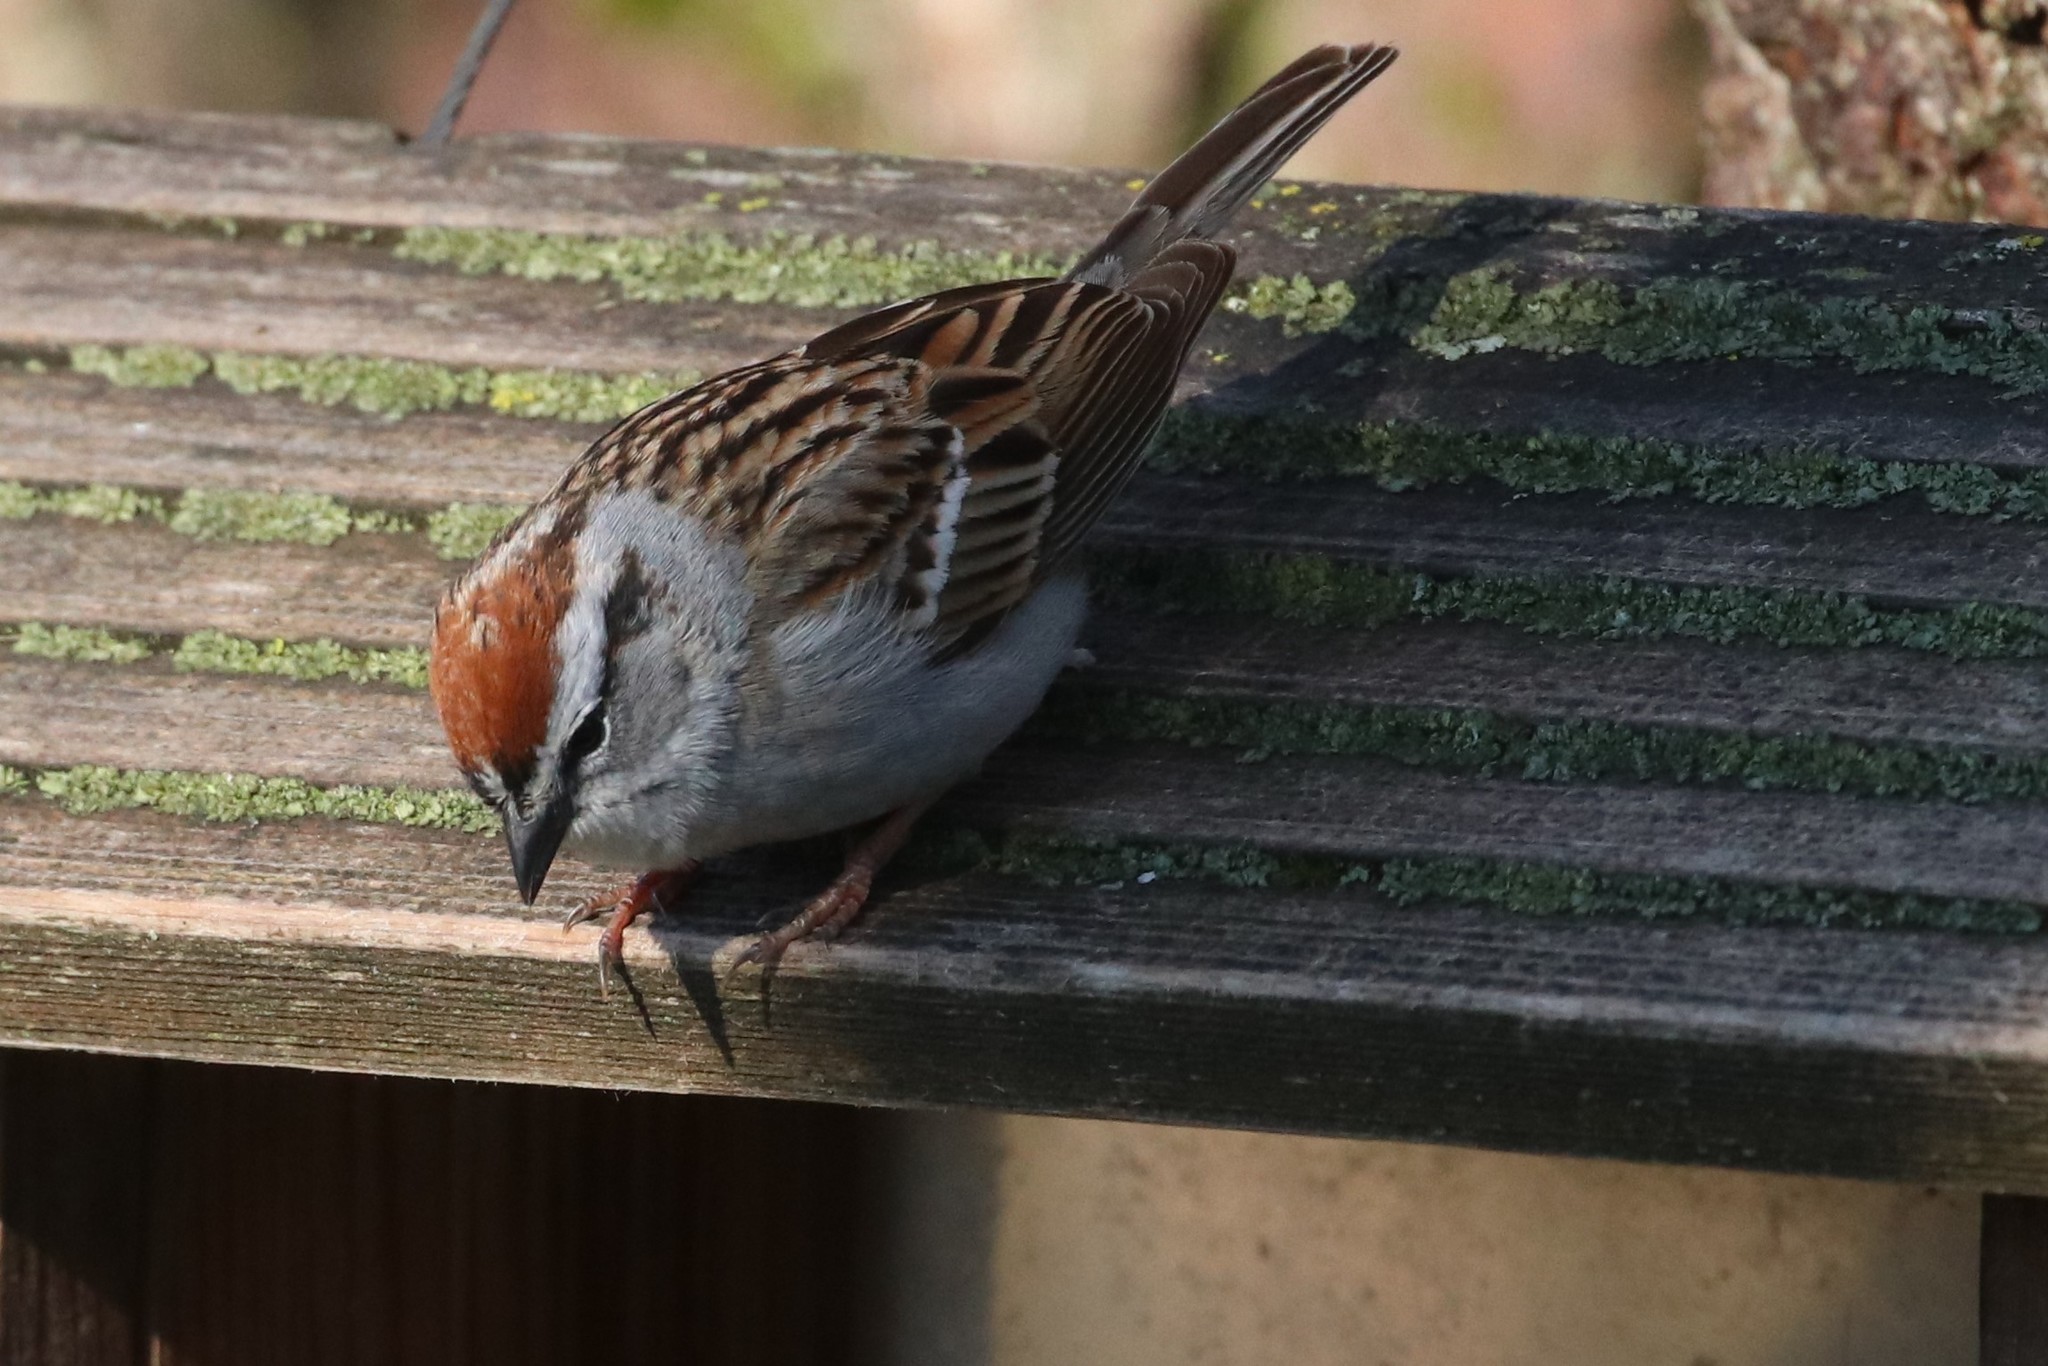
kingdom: Animalia
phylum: Chordata
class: Aves
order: Passeriformes
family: Passerellidae
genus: Spizella
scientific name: Spizella passerina
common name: Chipping sparrow
